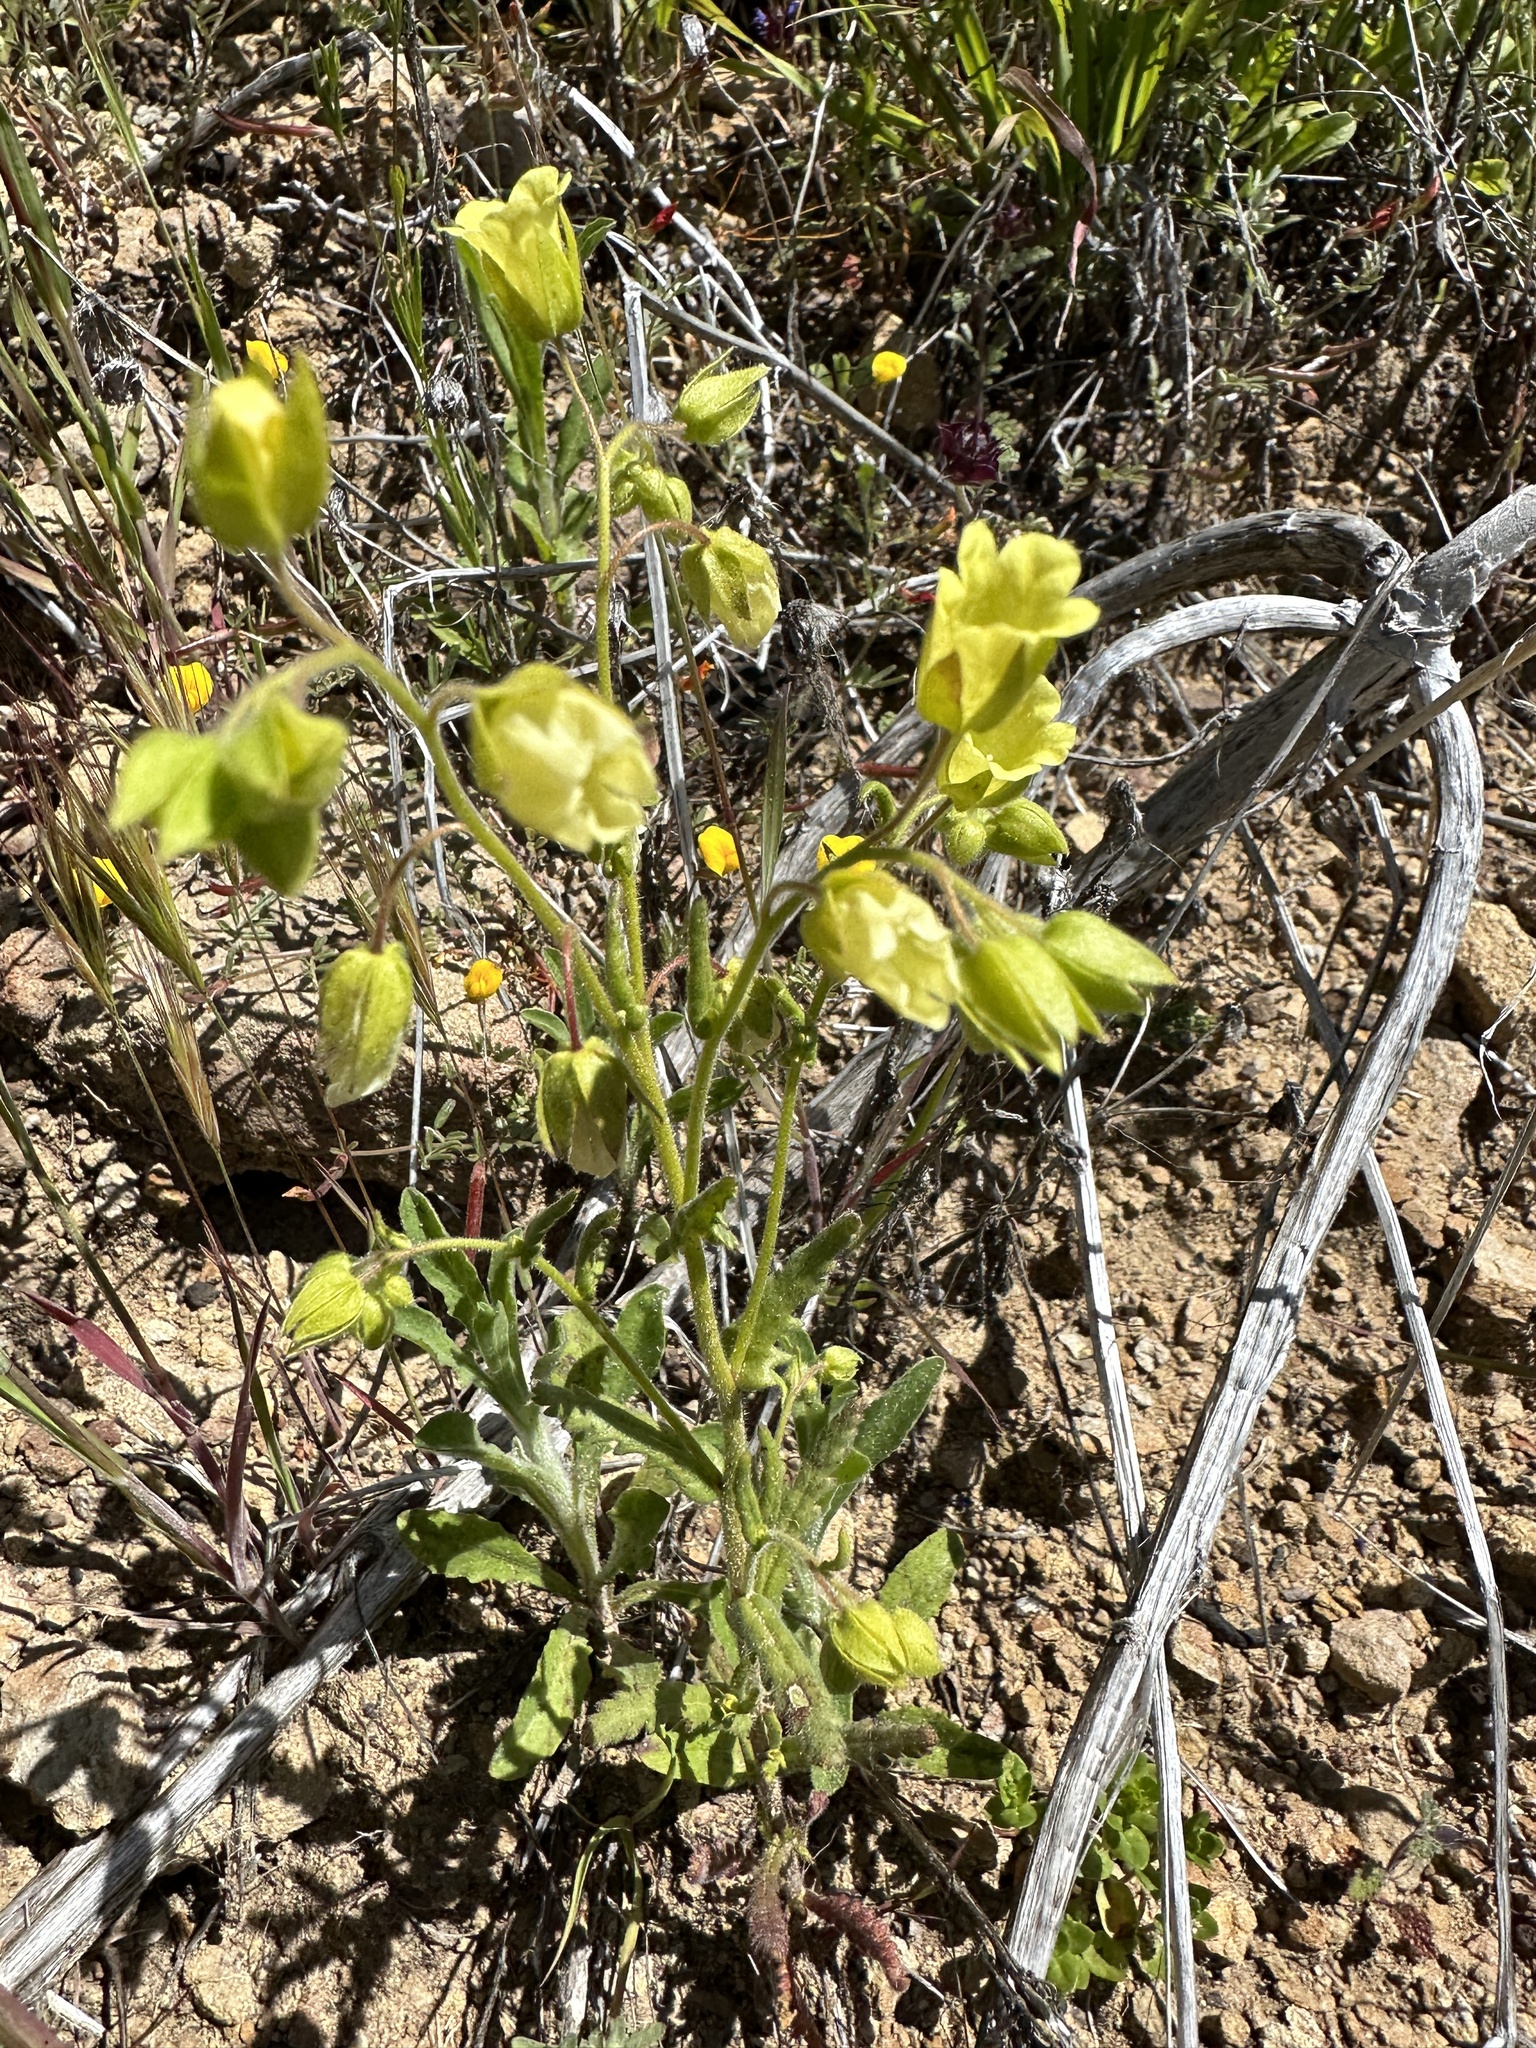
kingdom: Plantae
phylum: Tracheophyta
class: Magnoliopsida
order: Boraginales
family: Hydrophyllaceae
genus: Emmenanthe
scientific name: Emmenanthe penduliflora
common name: Whispering-bells
